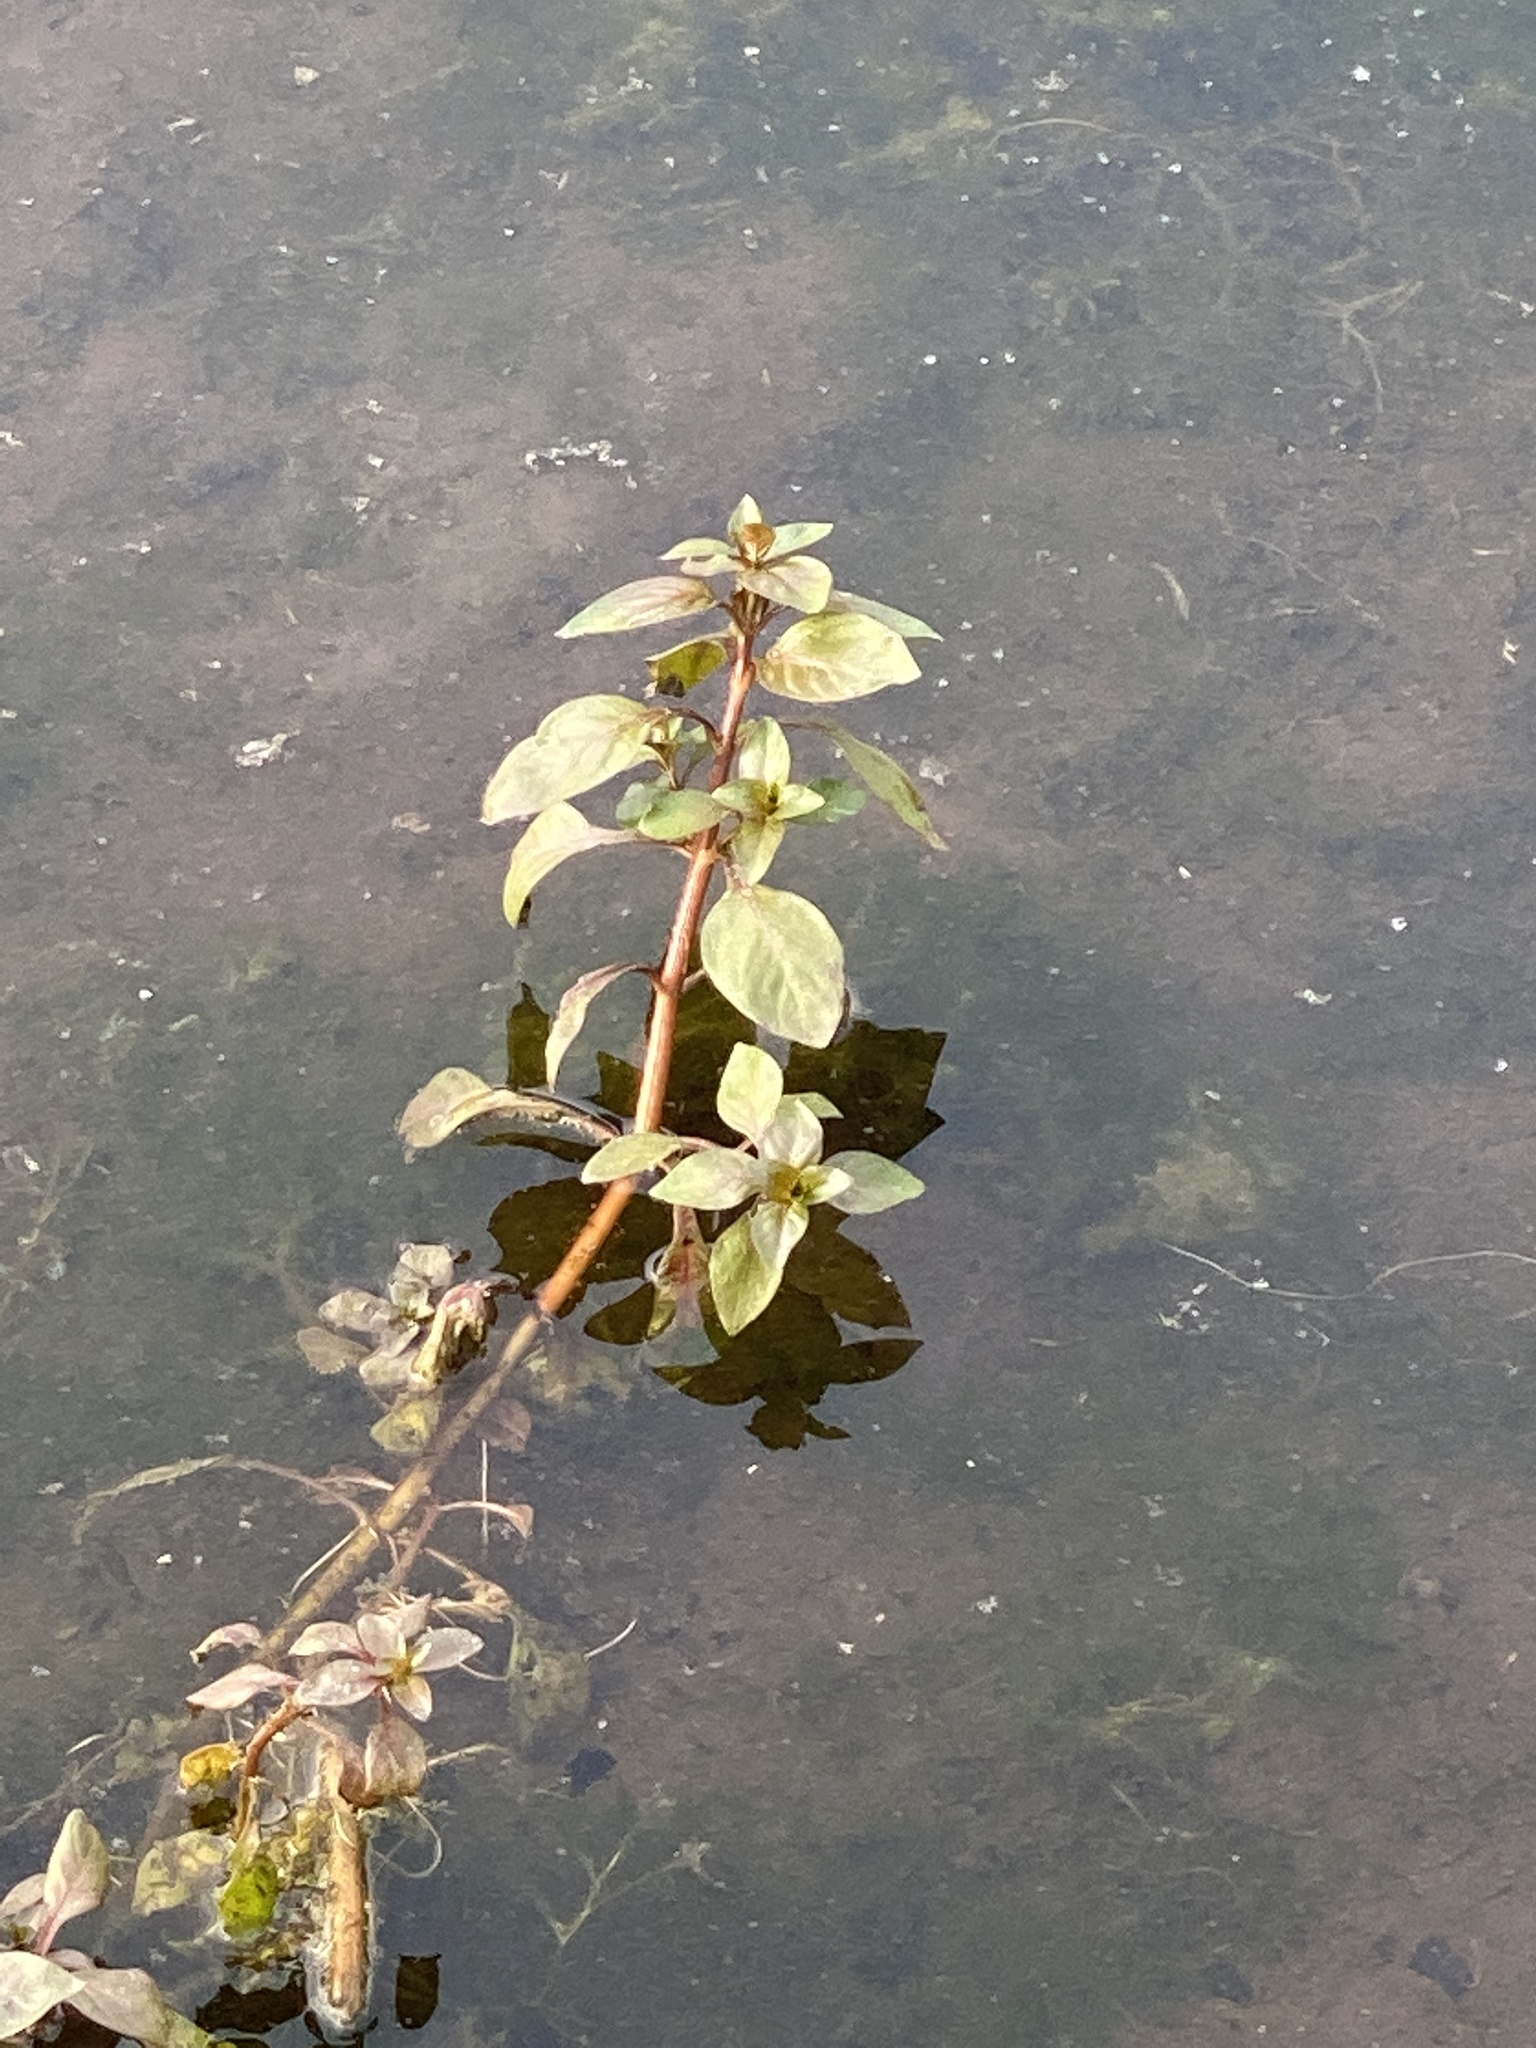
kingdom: Plantae
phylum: Tracheophyta
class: Magnoliopsida
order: Myrtales
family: Onagraceae
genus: Ludwigia
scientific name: Ludwigia palustris
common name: Hampshire-purslane
